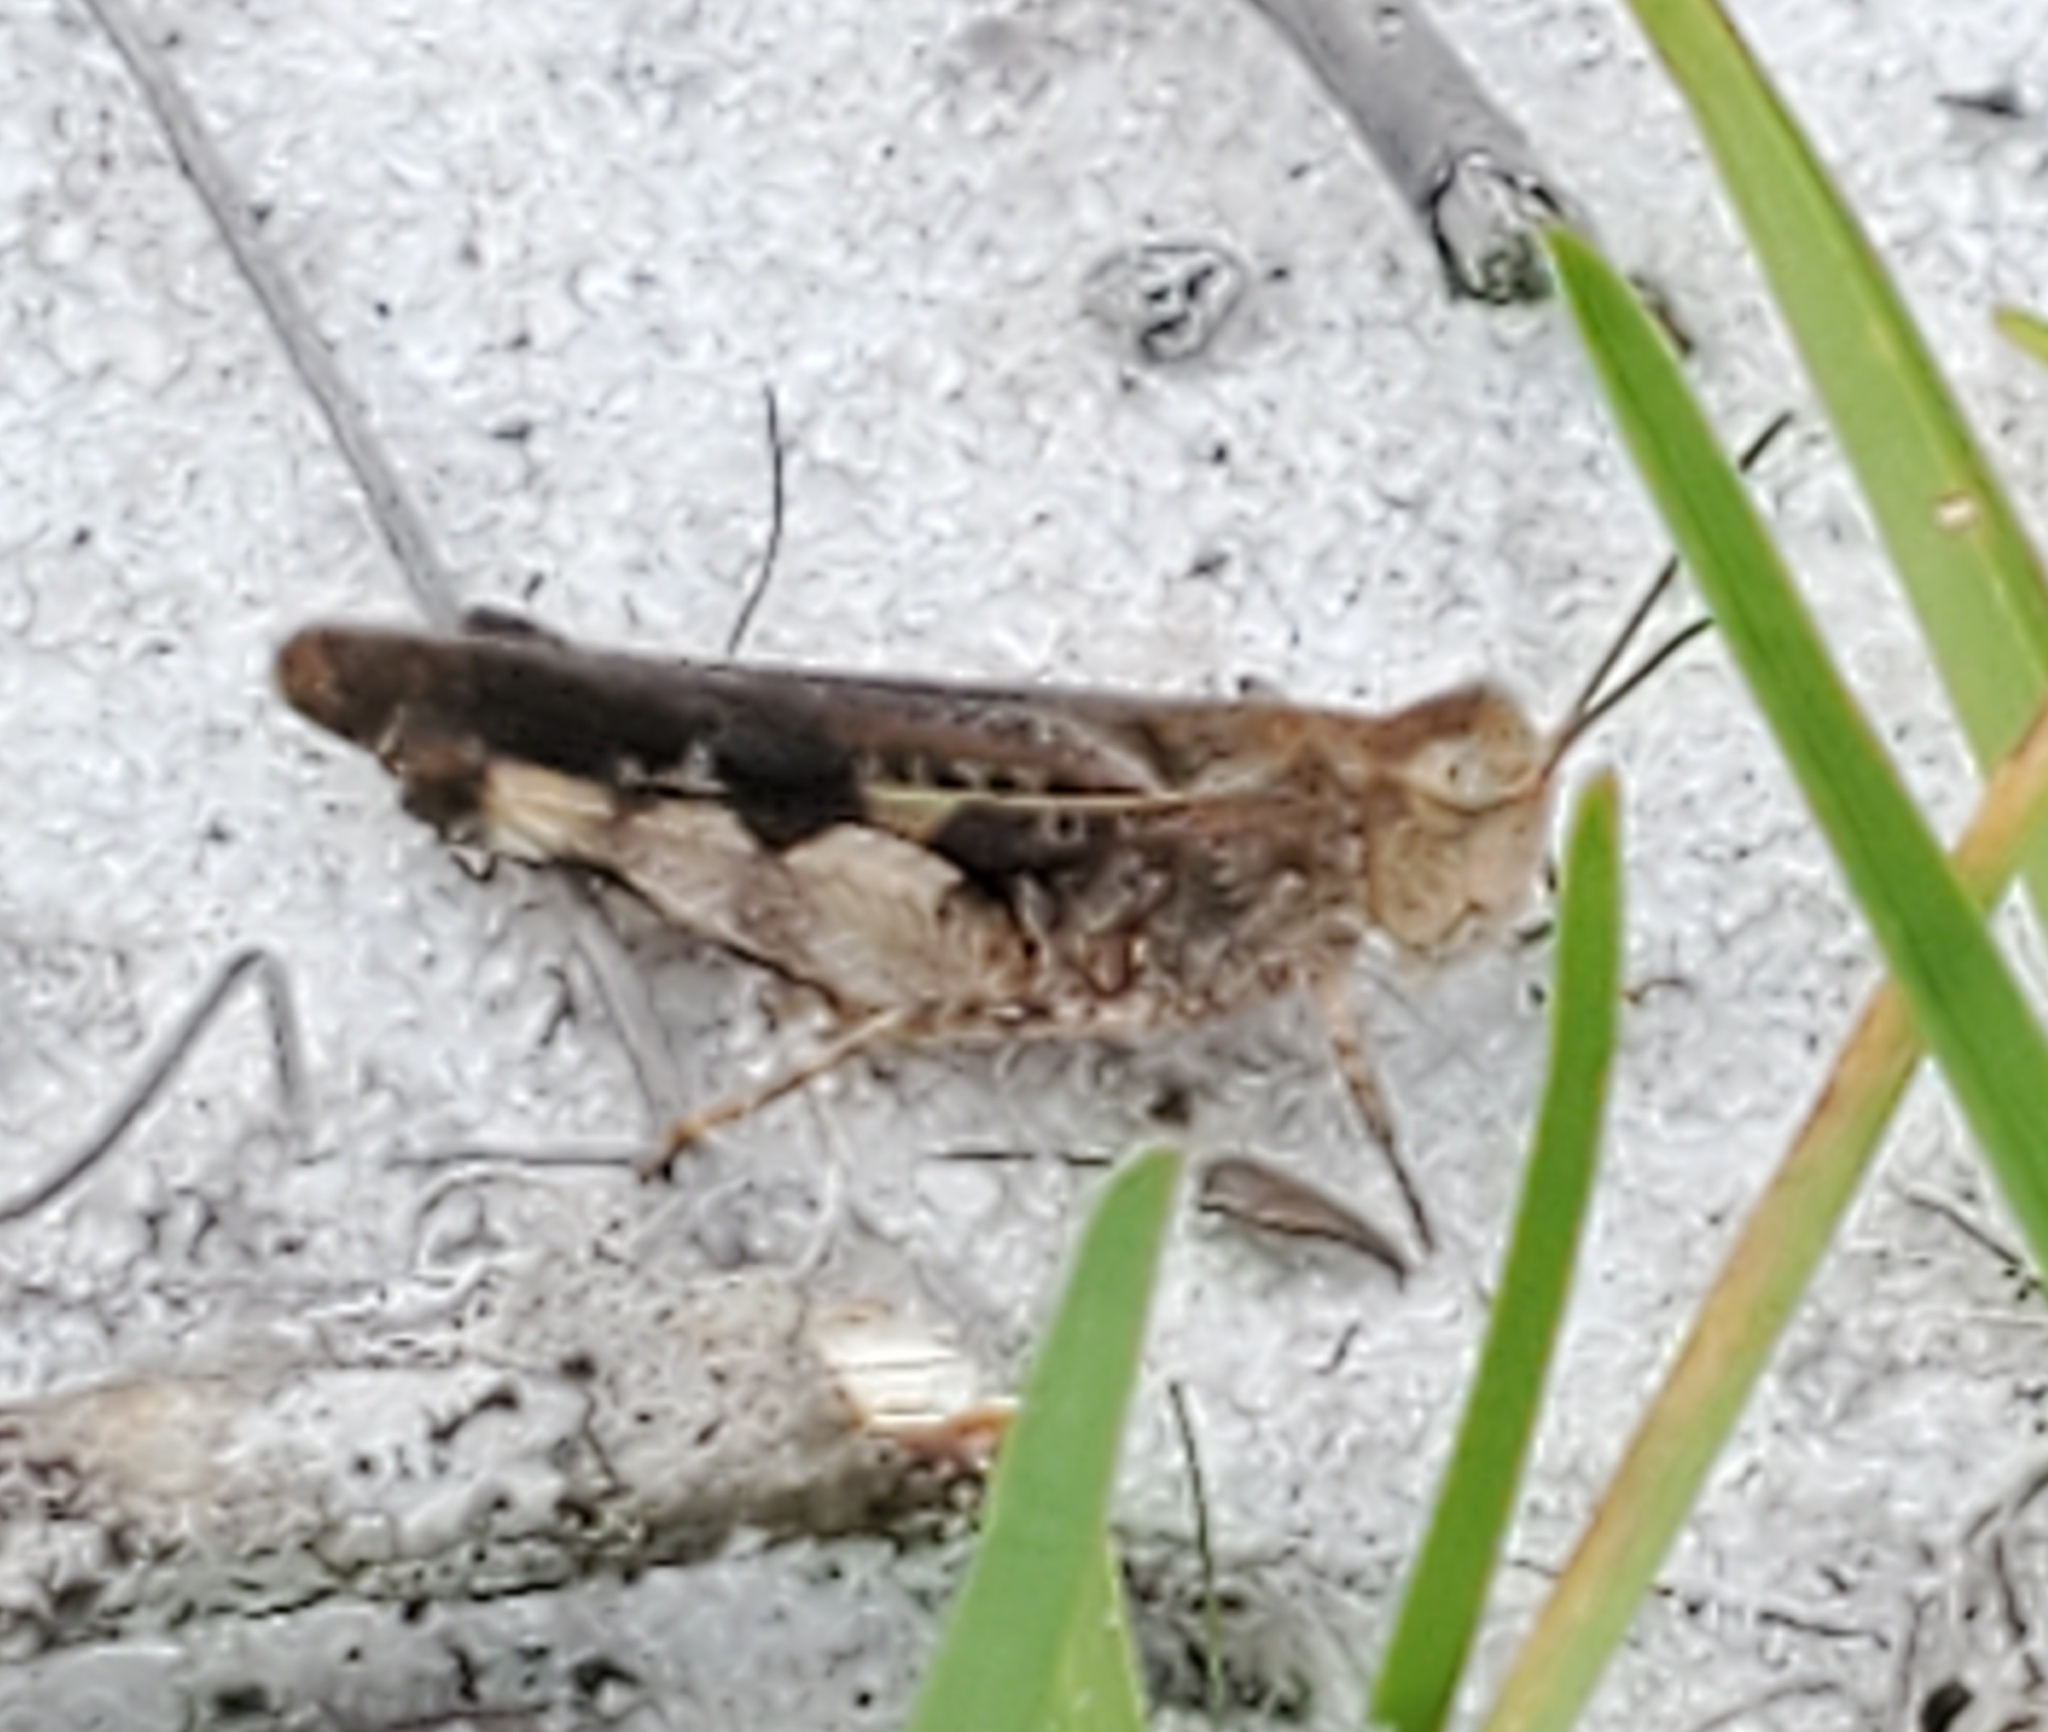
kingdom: Animalia
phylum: Arthropoda
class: Insecta
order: Orthoptera
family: Acrididae
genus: Chortophaga
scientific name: Chortophaga australior
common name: Southern green-striped grasshopper
